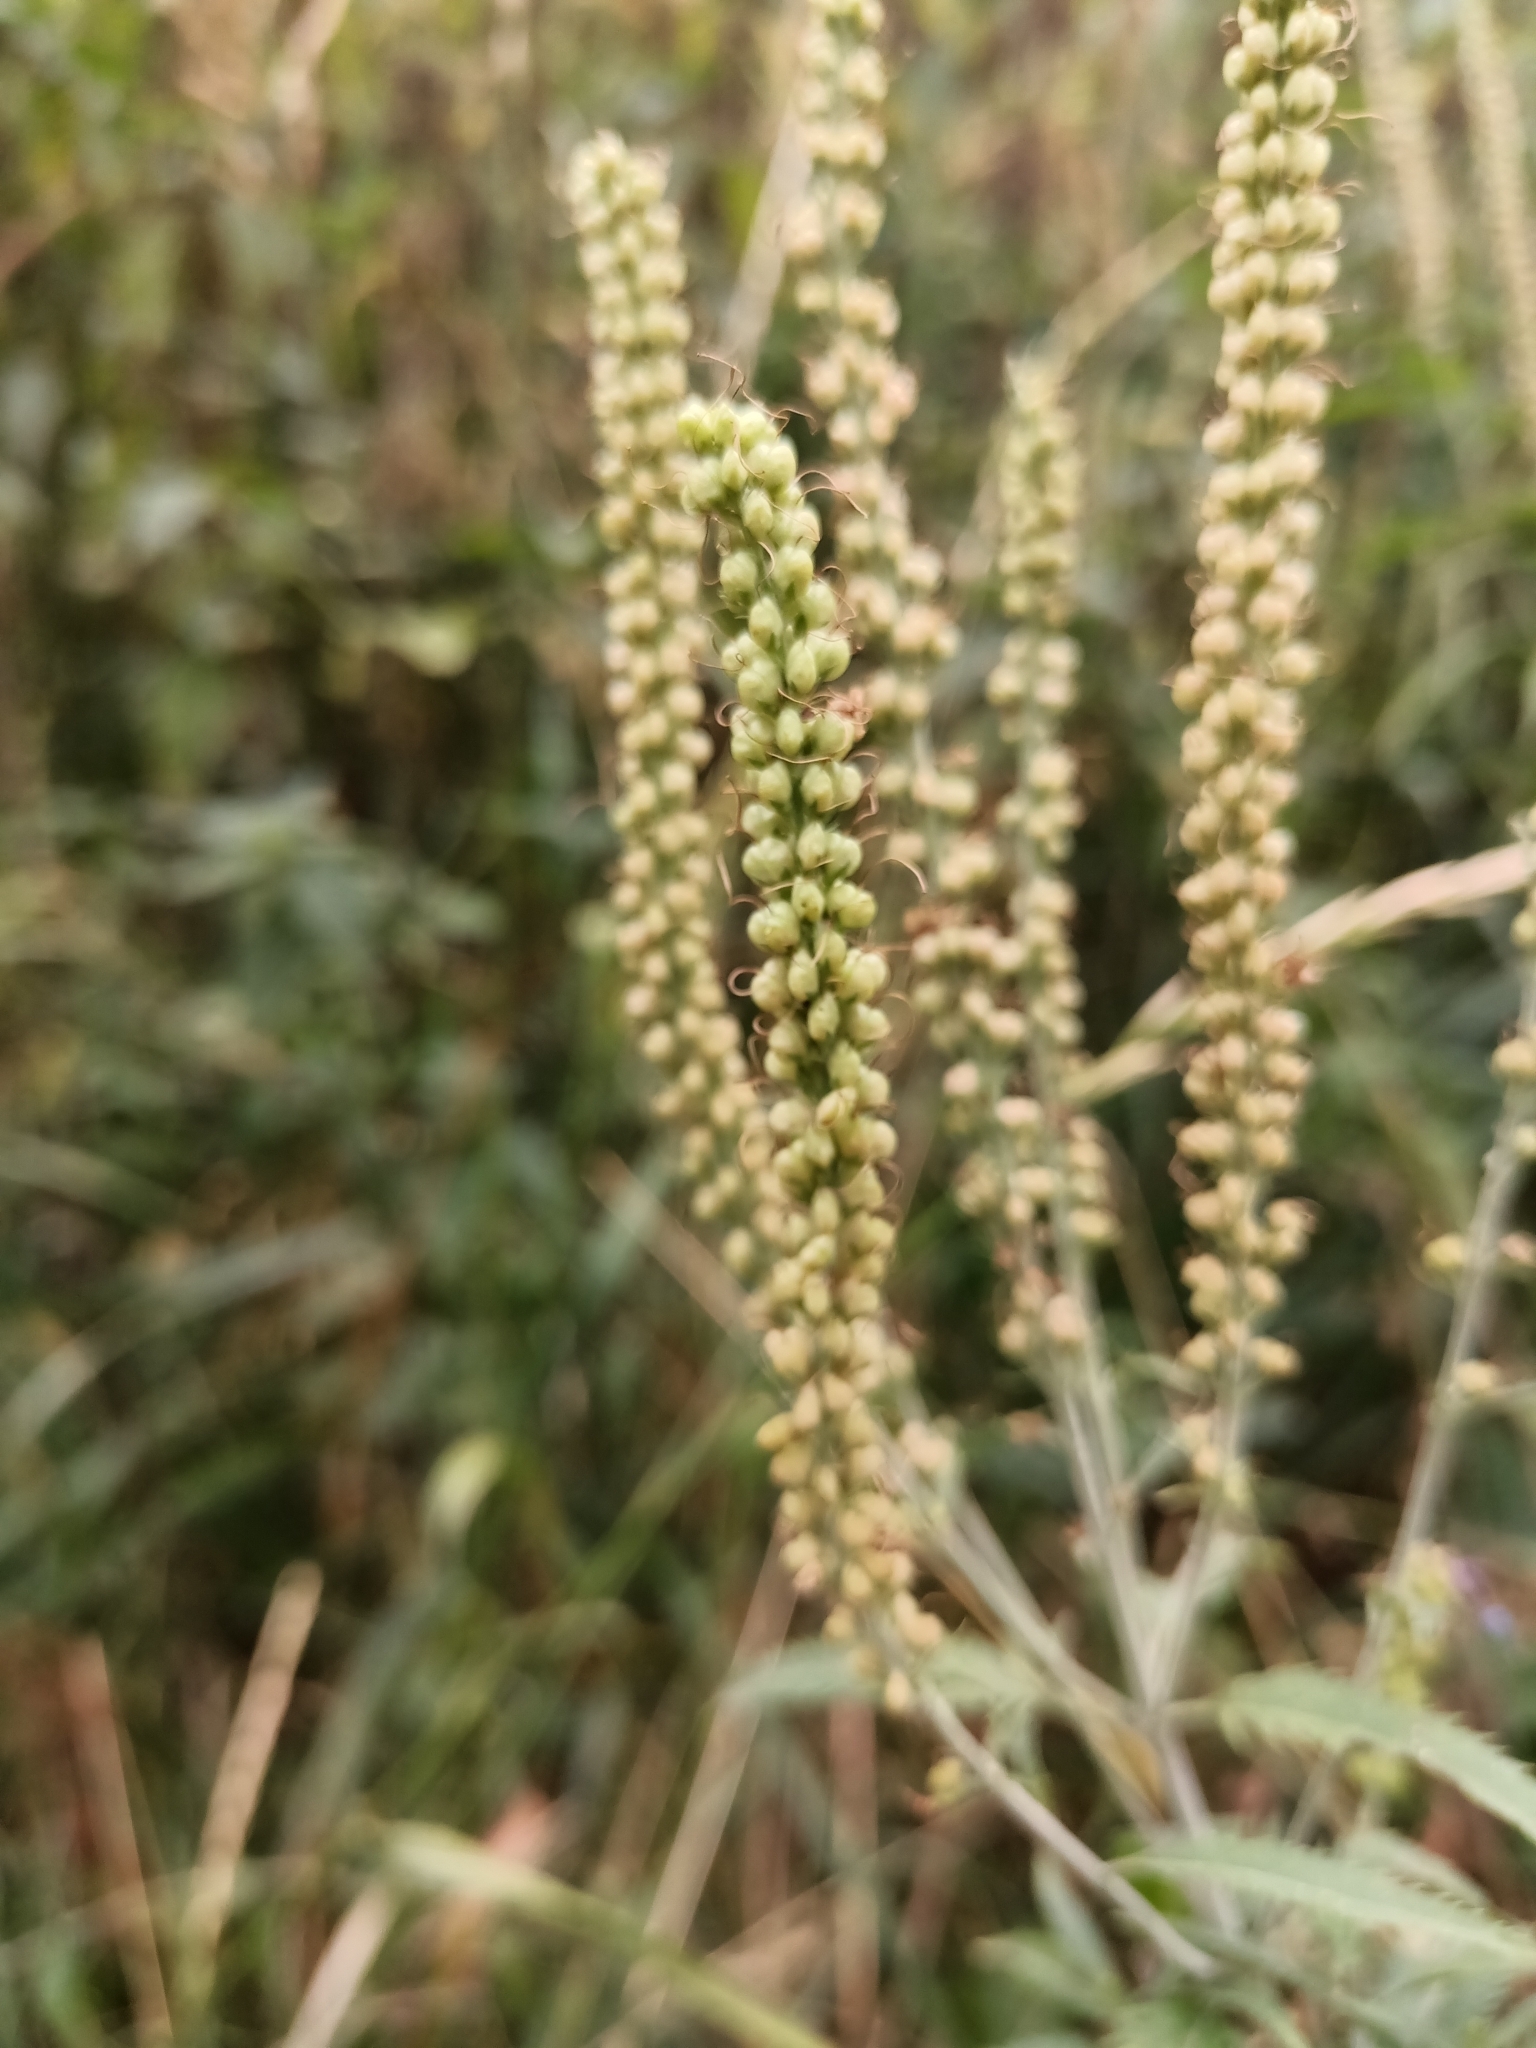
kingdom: Plantae
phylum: Tracheophyta
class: Magnoliopsida
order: Lamiales
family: Plantaginaceae
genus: Veronica
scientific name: Veronica longifolia
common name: Garden speedwell
